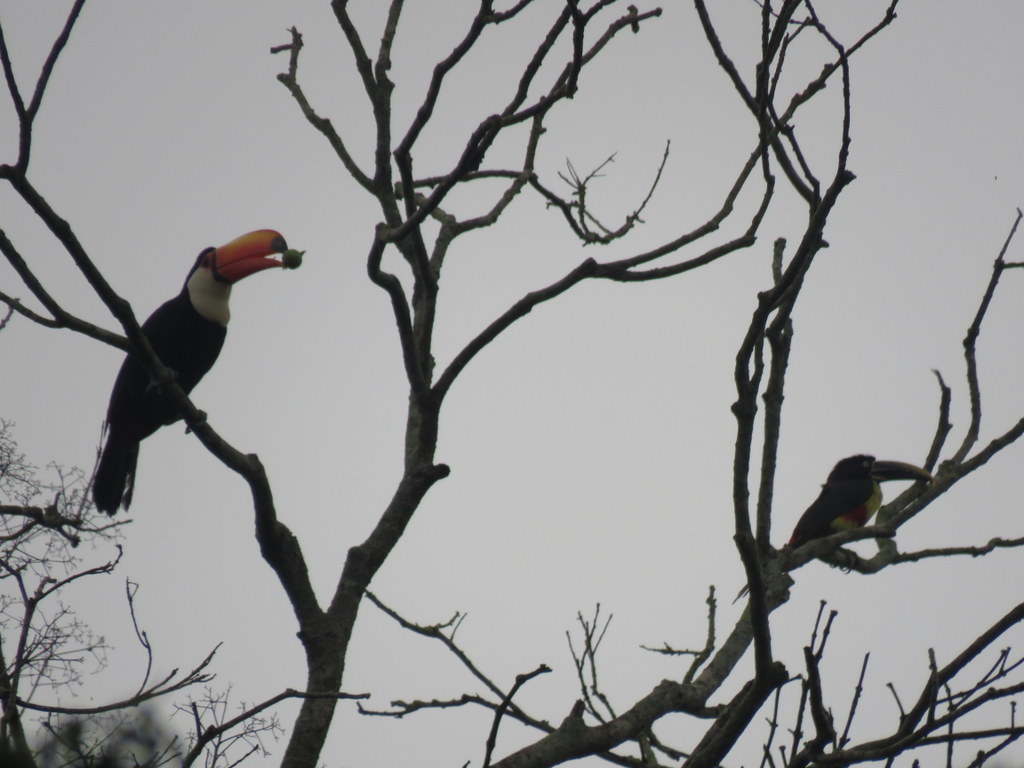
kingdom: Animalia
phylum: Chordata
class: Aves
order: Piciformes
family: Ramphastidae
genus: Ramphastos
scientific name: Ramphastos toco
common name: Toco toucan
